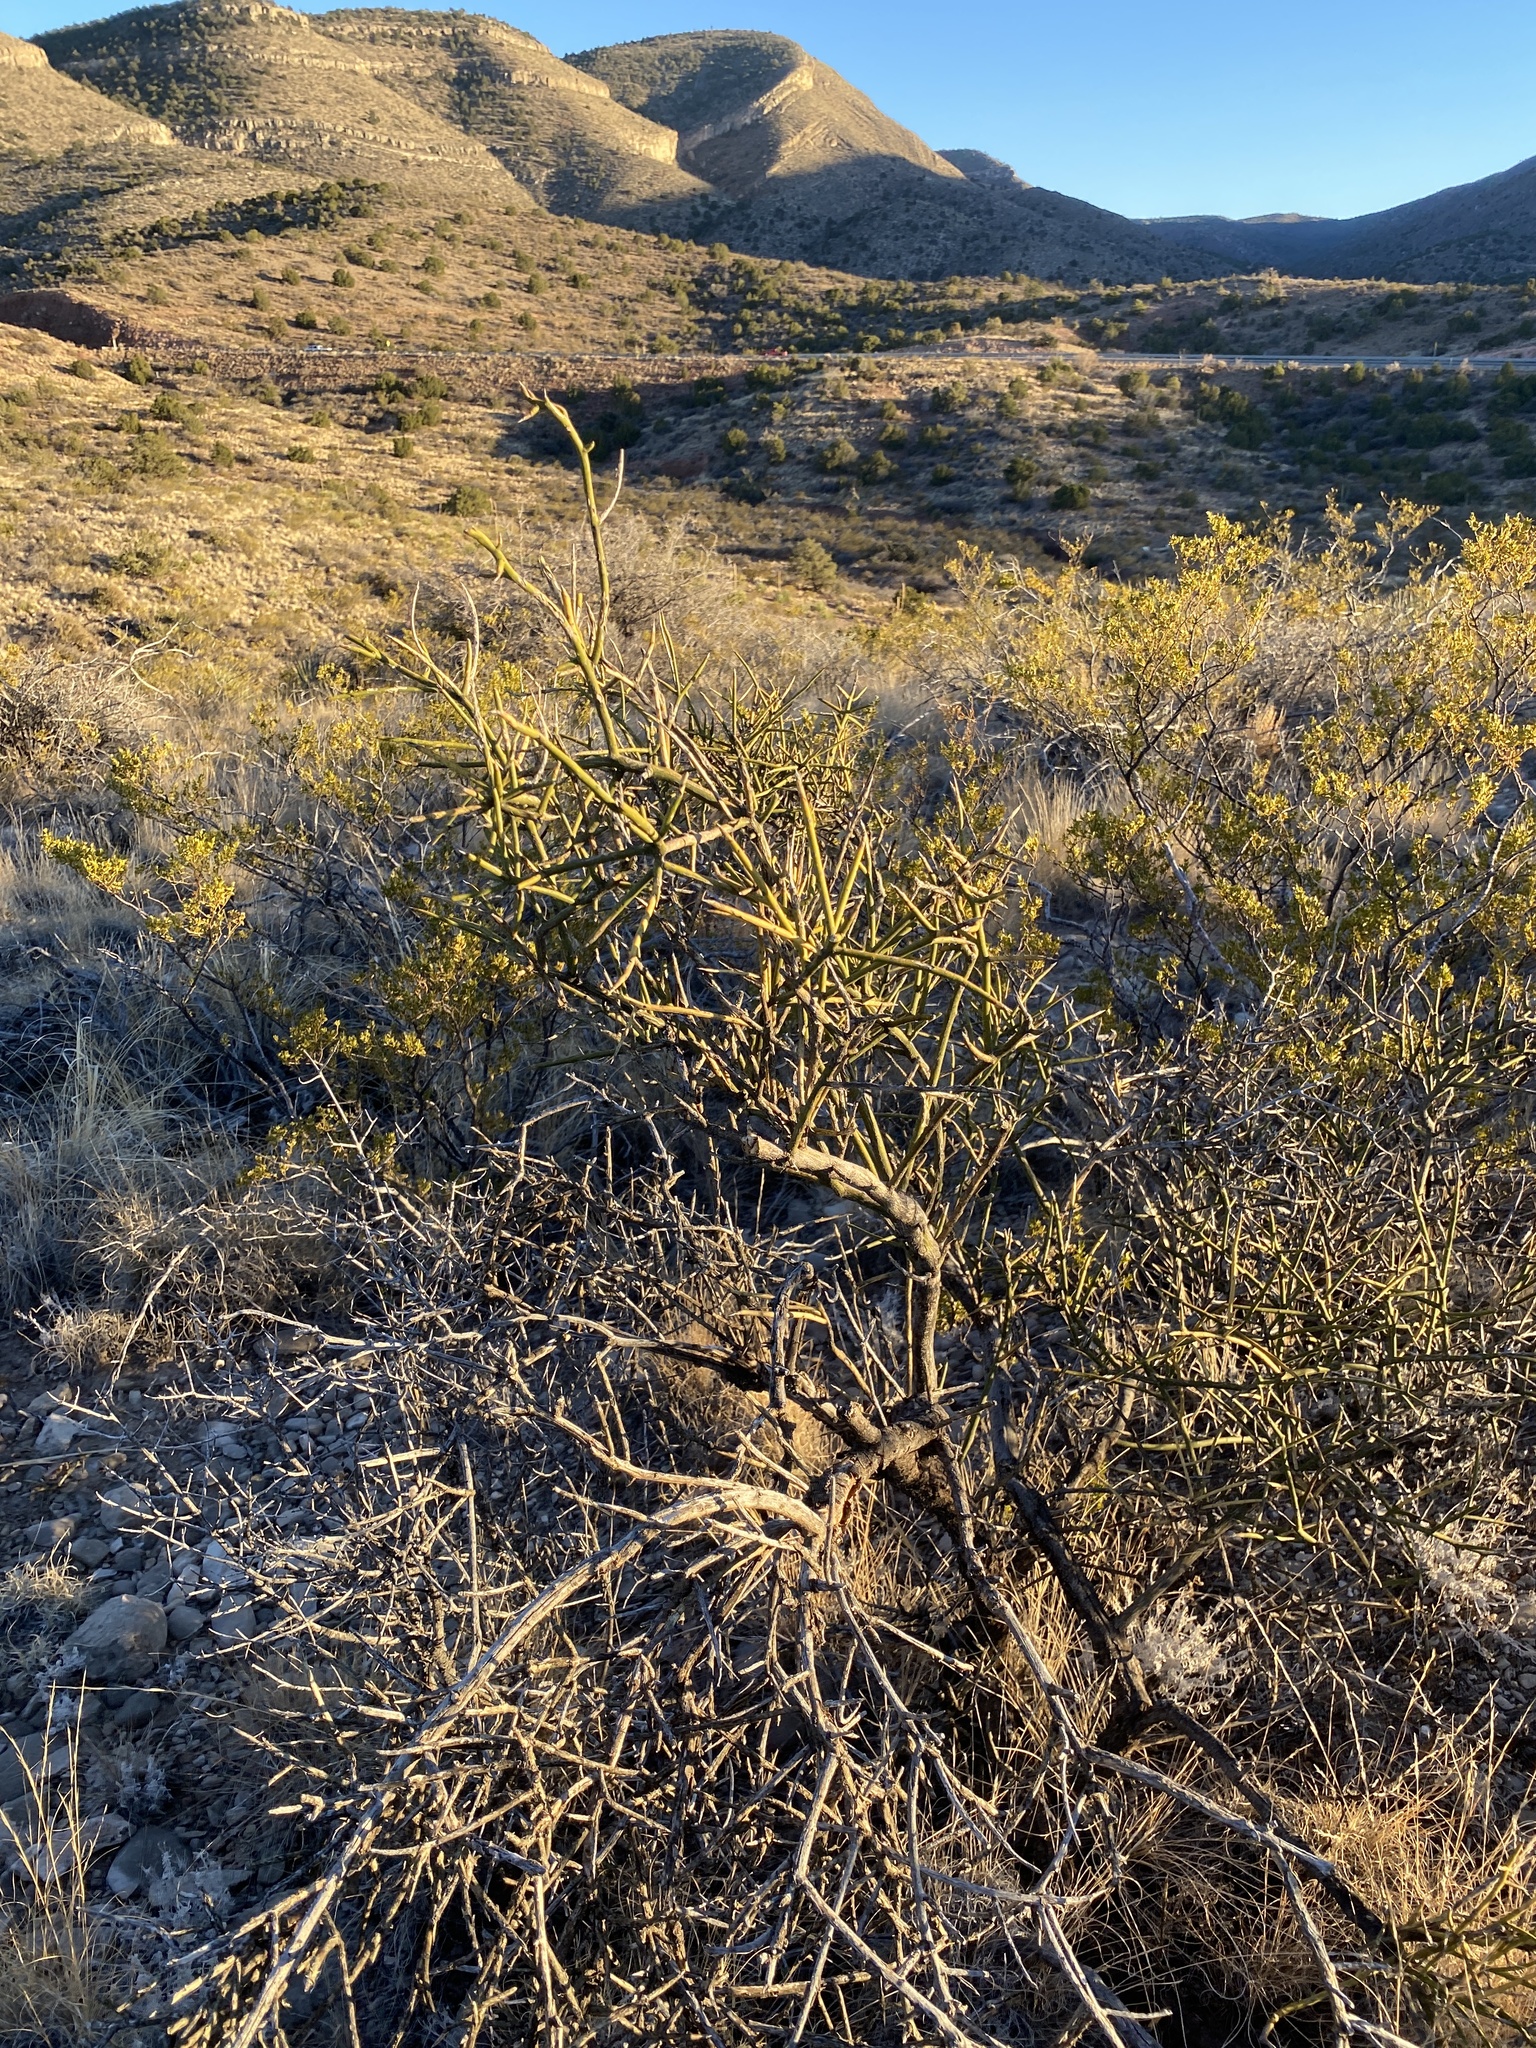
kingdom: Plantae
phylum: Tracheophyta
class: Magnoliopsida
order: Brassicales
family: Koeberliniaceae
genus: Koeberlinia
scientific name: Koeberlinia spinosa
